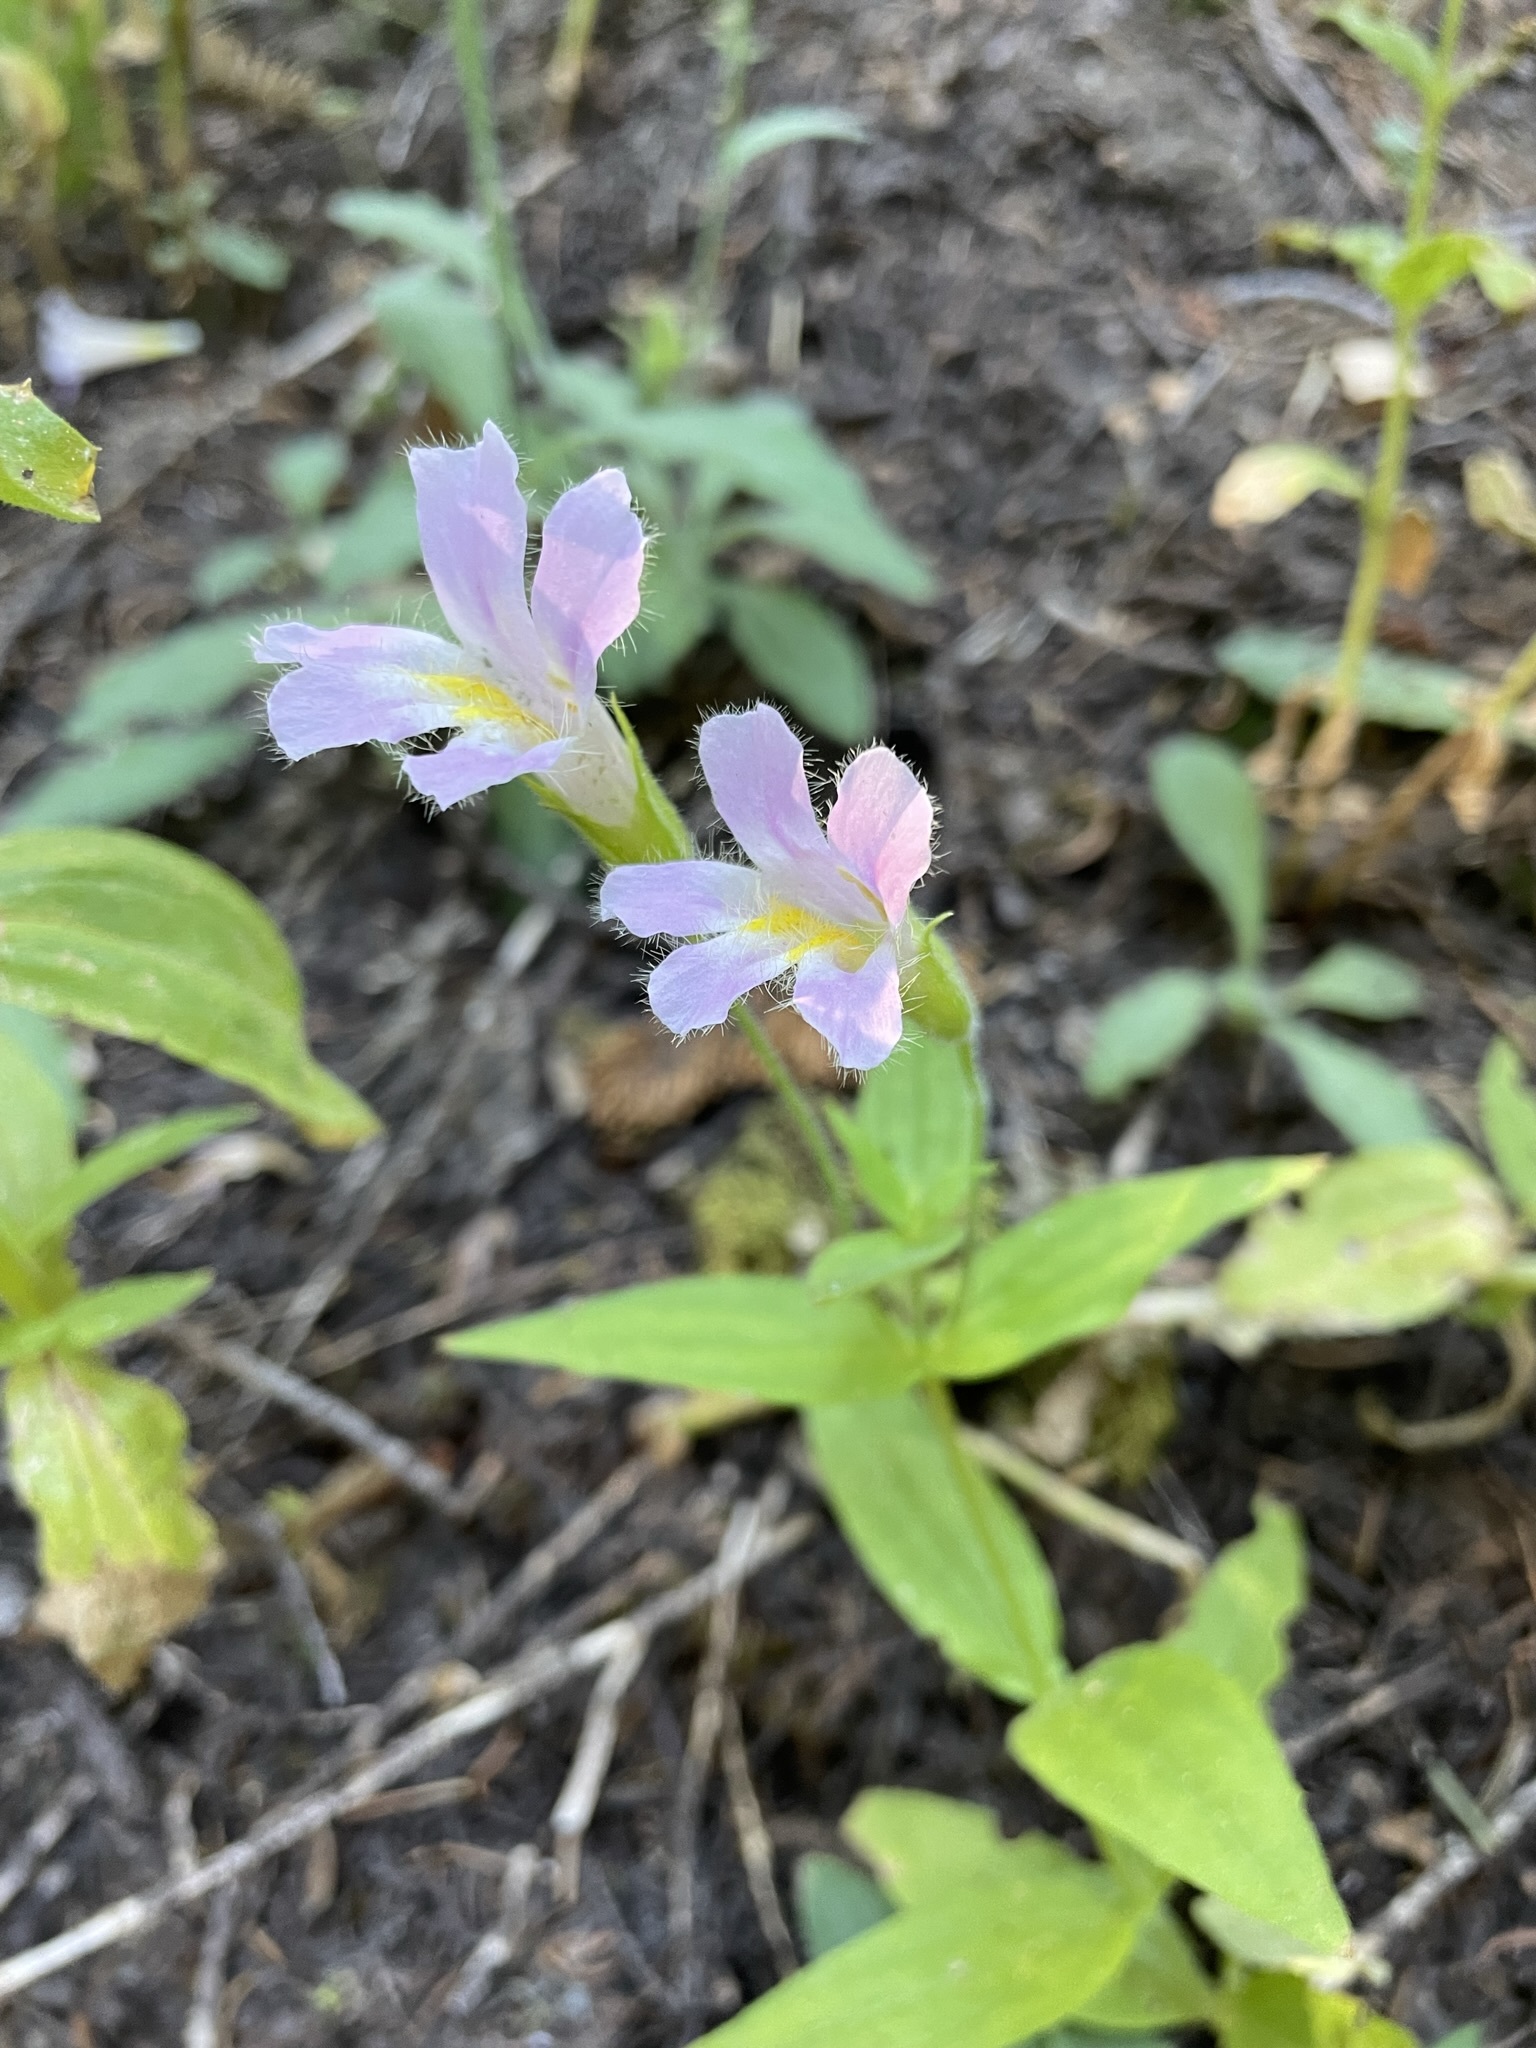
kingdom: Plantae
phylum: Tracheophyta
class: Magnoliopsida
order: Lamiales
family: Phrymaceae
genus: Erythranthe
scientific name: Erythranthe erubescens
